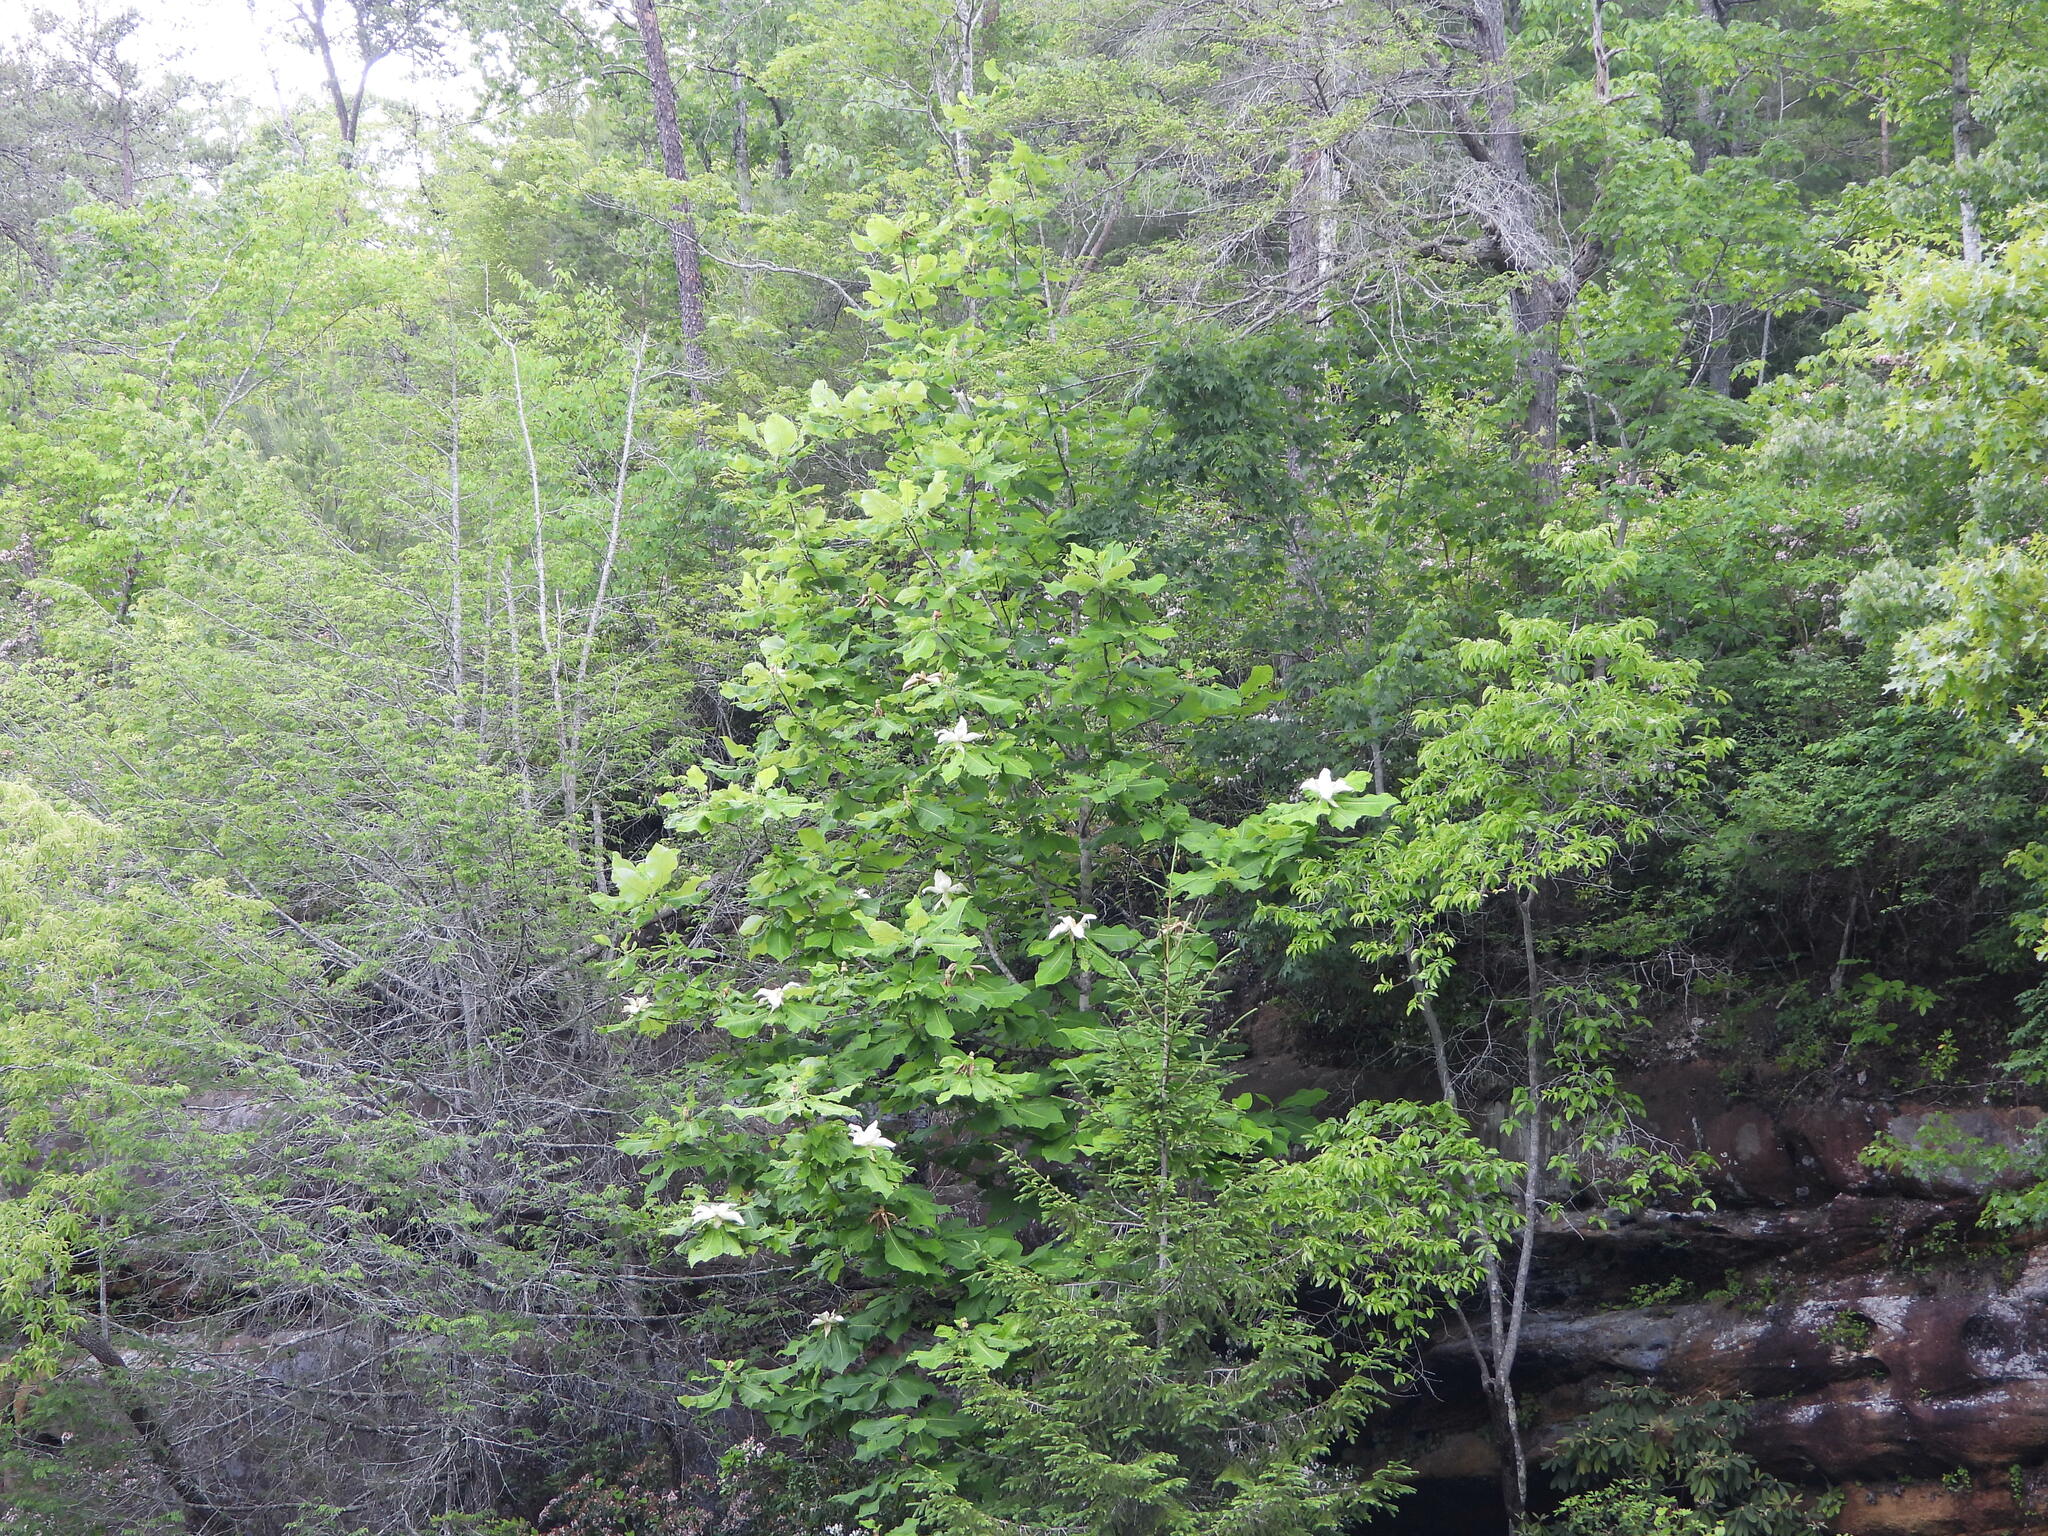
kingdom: Plantae
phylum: Tracheophyta
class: Magnoliopsida
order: Magnoliales
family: Magnoliaceae
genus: Magnolia
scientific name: Magnolia macrophylla
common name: Big-leaf magnolia
